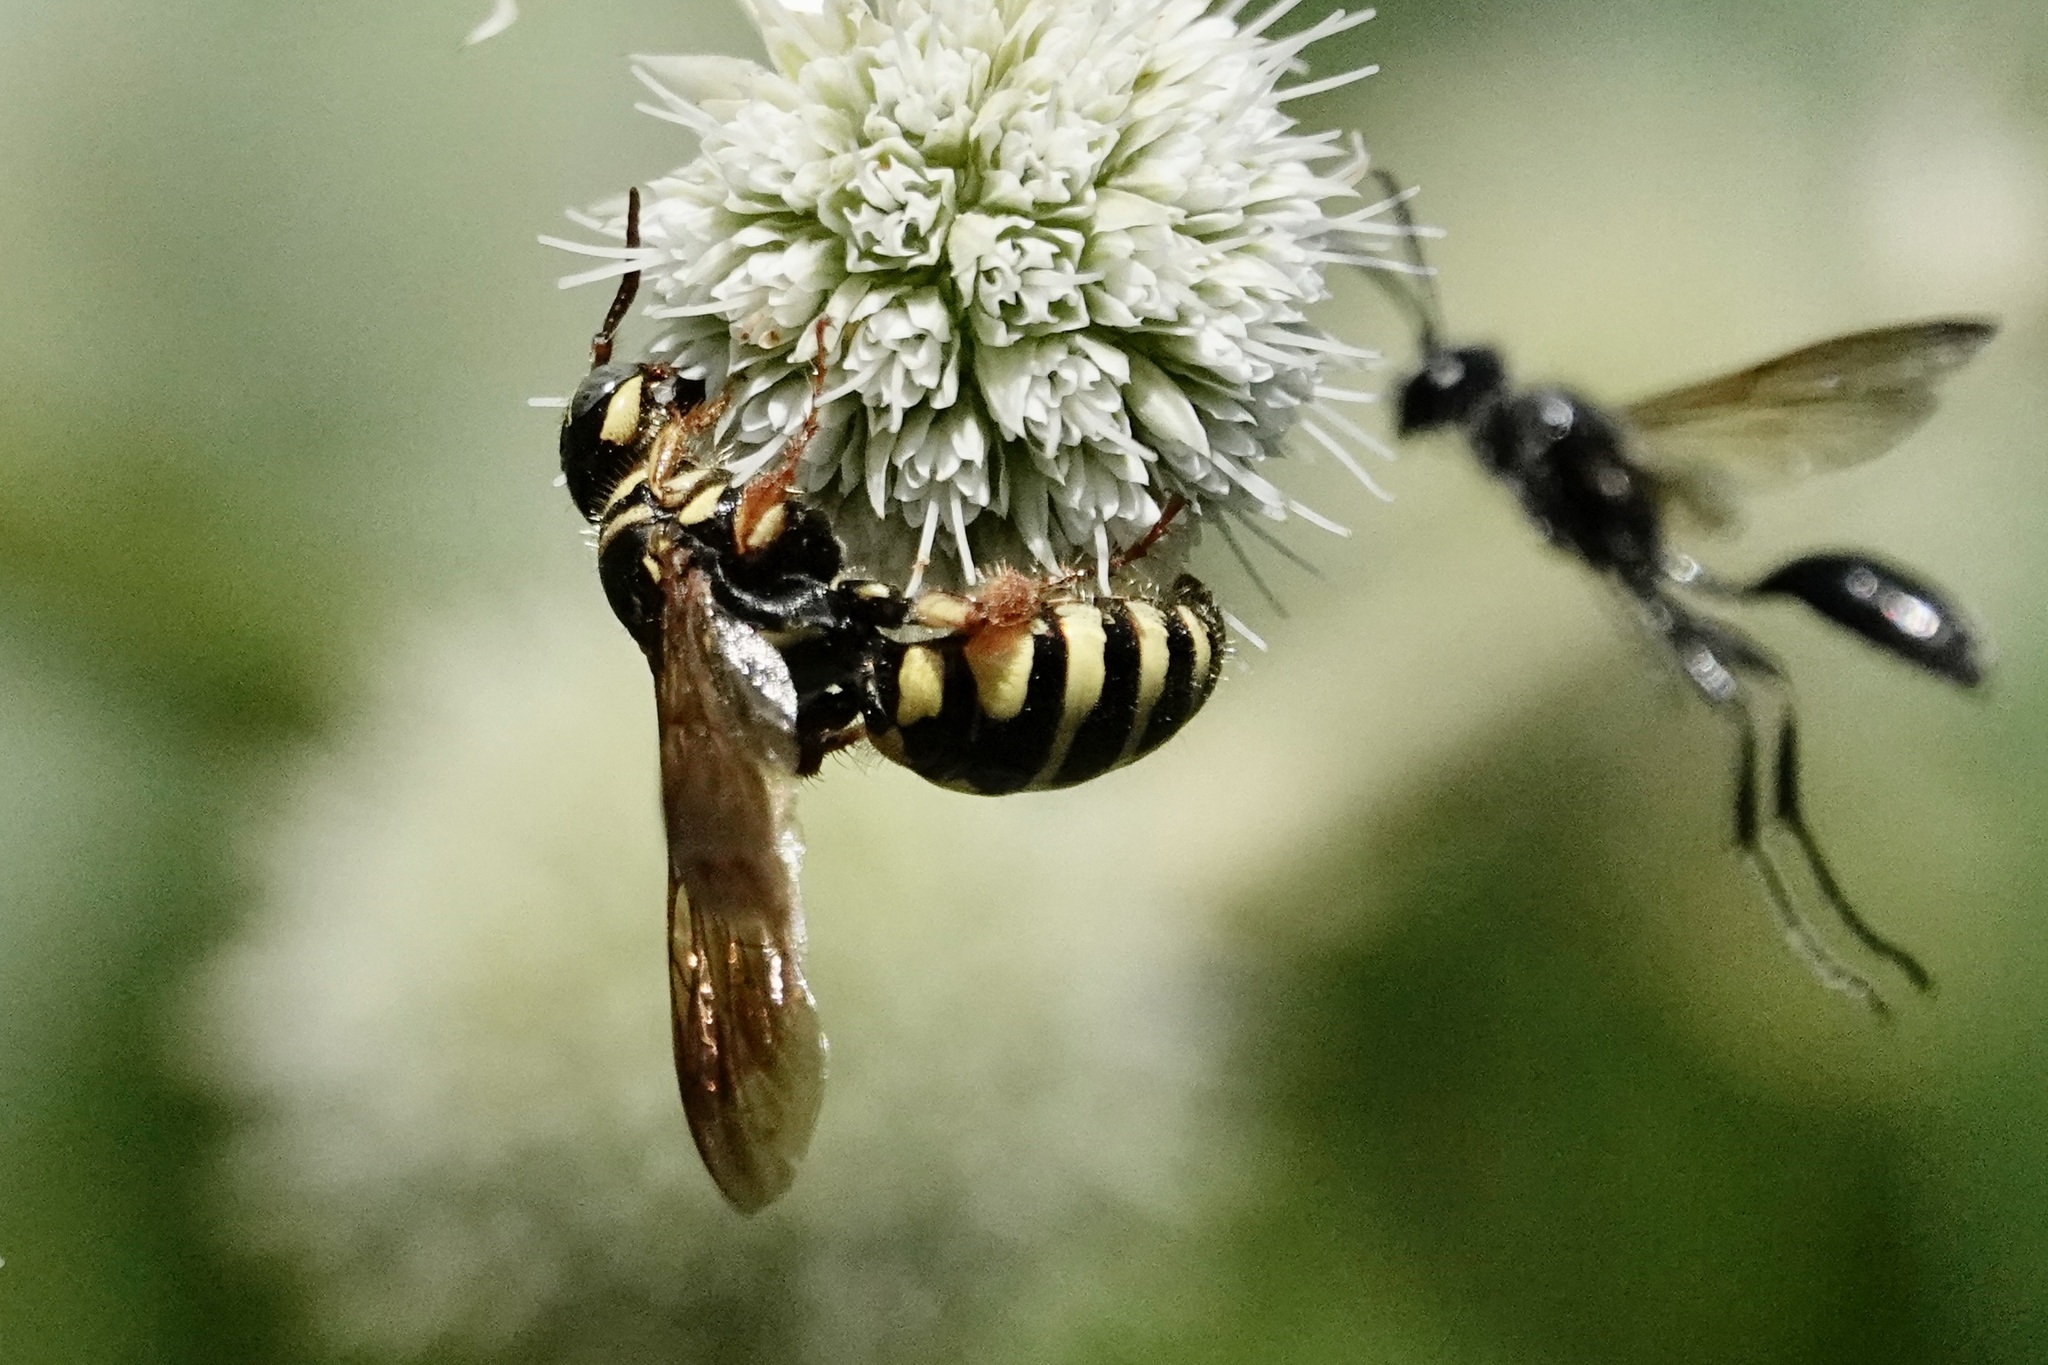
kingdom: Animalia
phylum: Arthropoda
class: Insecta
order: Hymenoptera
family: Tiphiidae
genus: Myzinum
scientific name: Myzinum quinquecinctum
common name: Five-banded thynnid wasp
